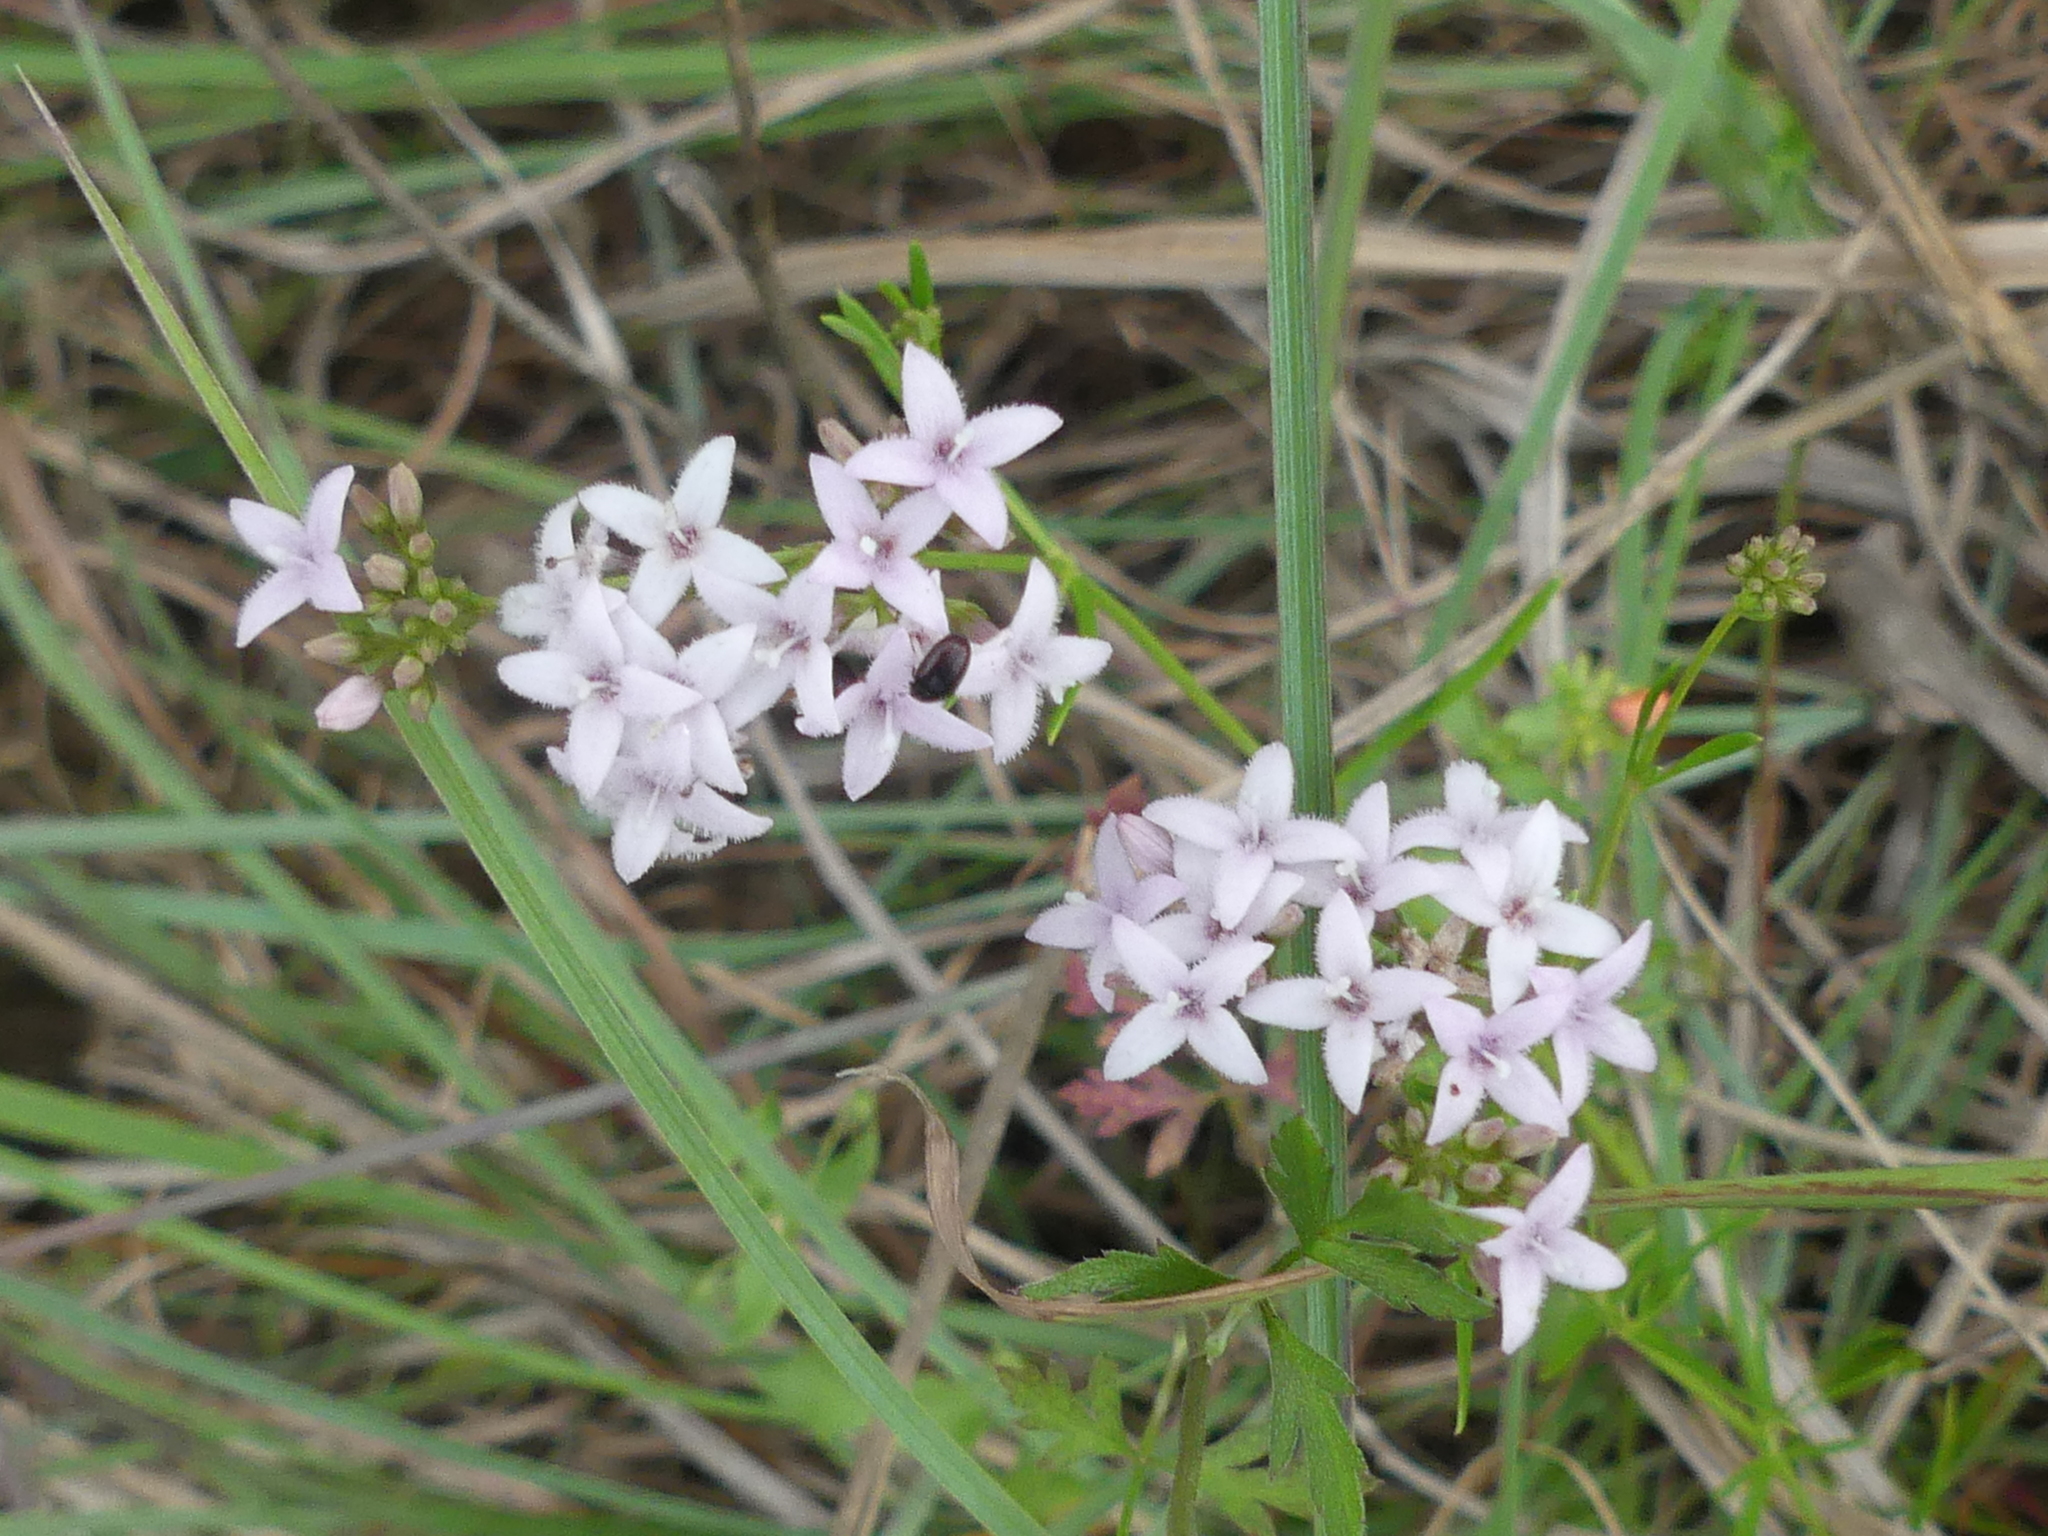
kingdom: Plantae
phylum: Tracheophyta
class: Magnoliopsida
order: Gentianales
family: Rubiaceae
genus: Stenaria
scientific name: Stenaria nigricans
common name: Diamondflowers
